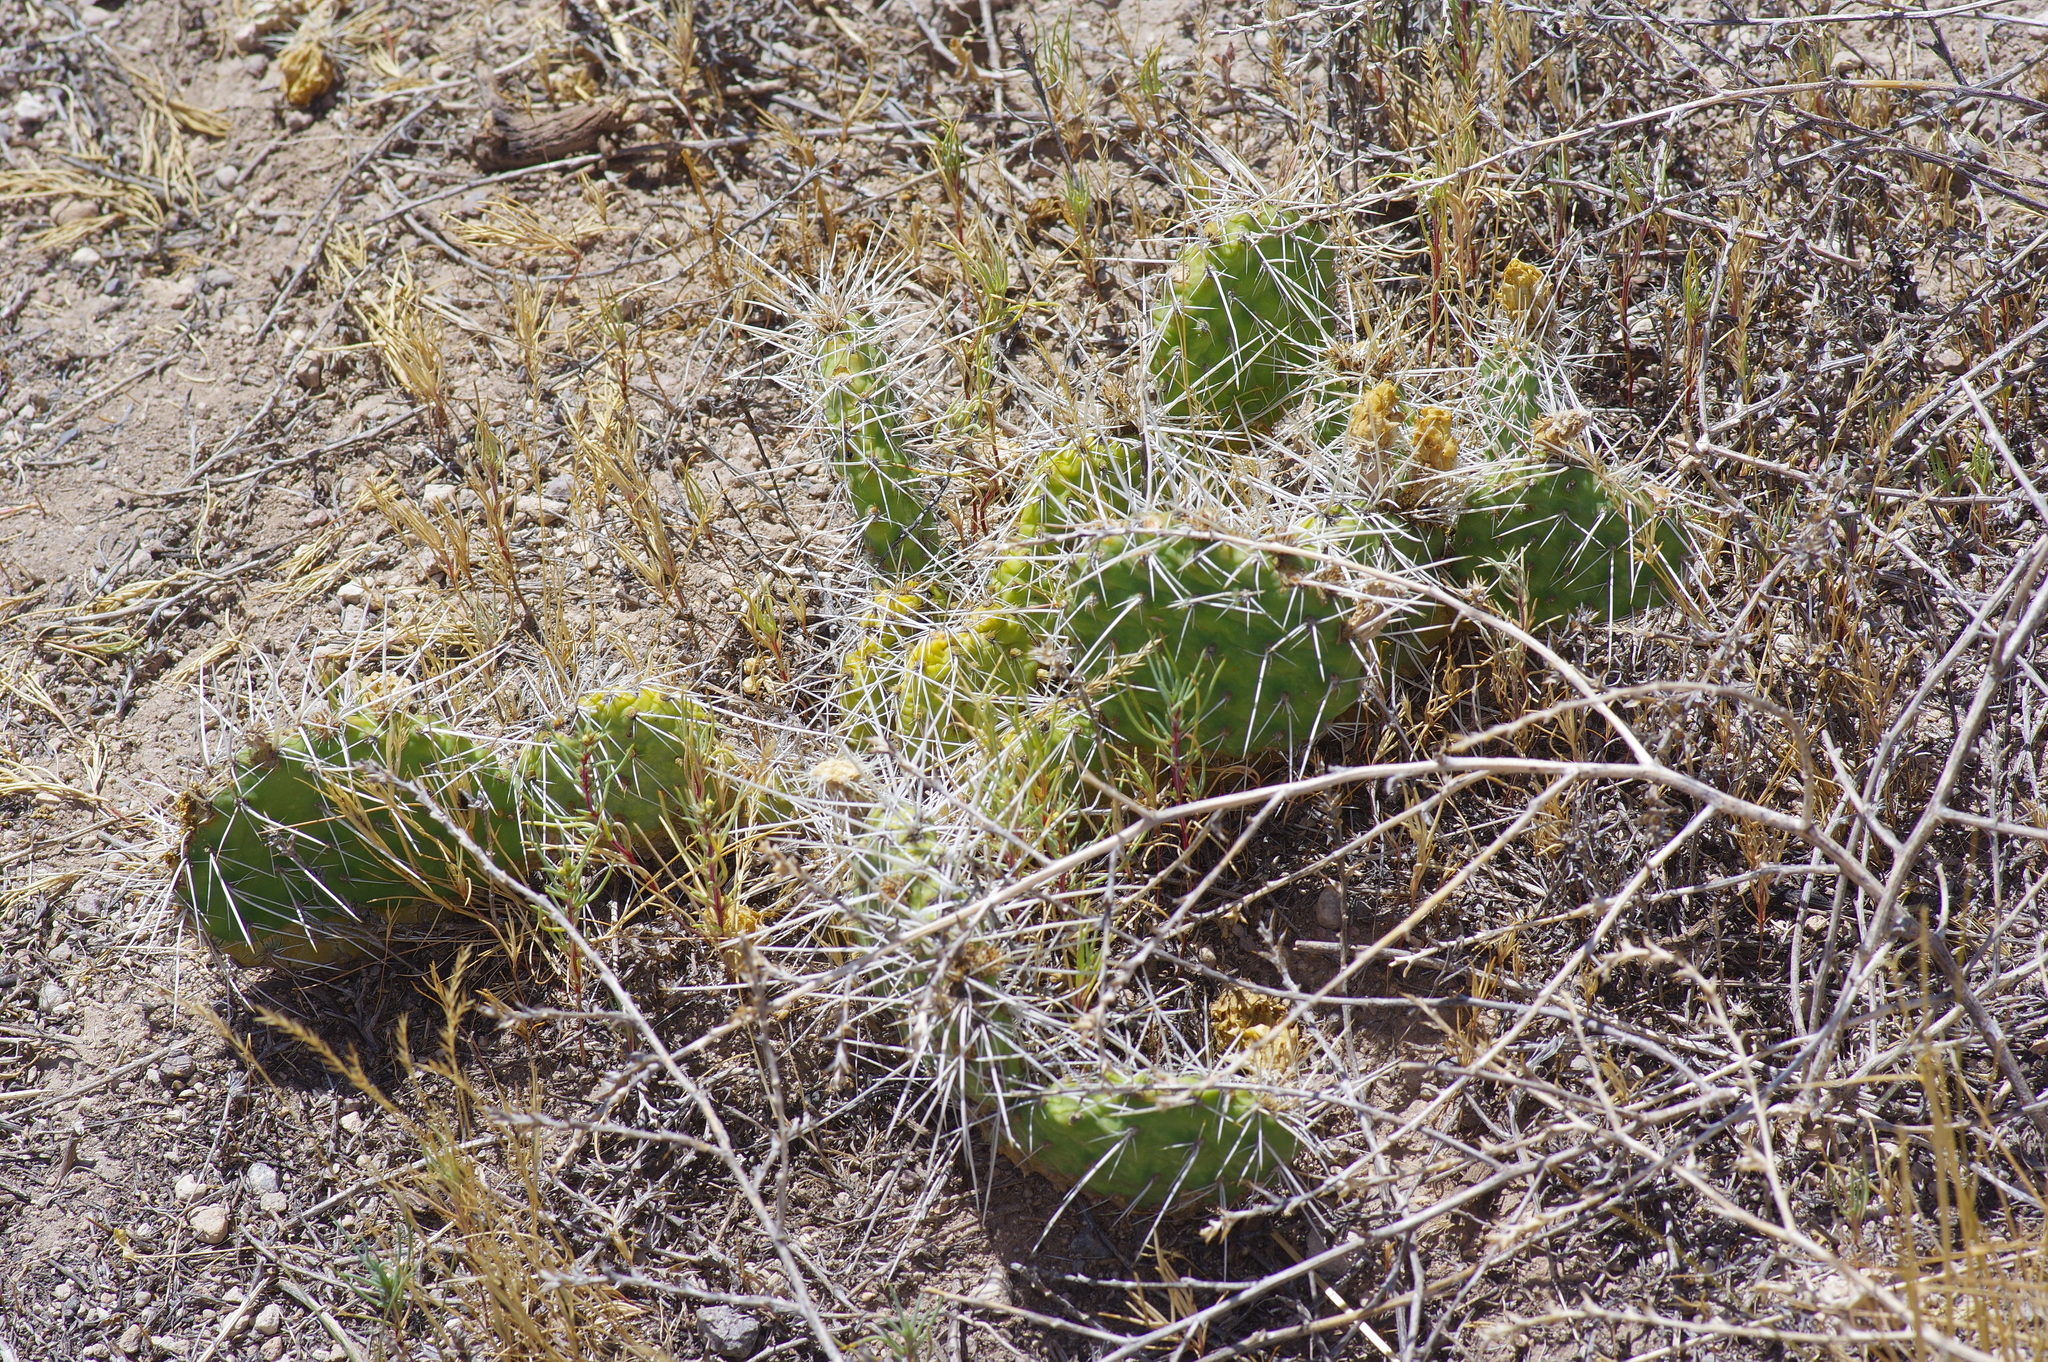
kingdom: Plantae
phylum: Tracheophyta
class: Magnoliopsida
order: Caryophyllales
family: Cactaceae
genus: Opuntia
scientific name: Opuntia polyacantha
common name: Plains prickly-pear
